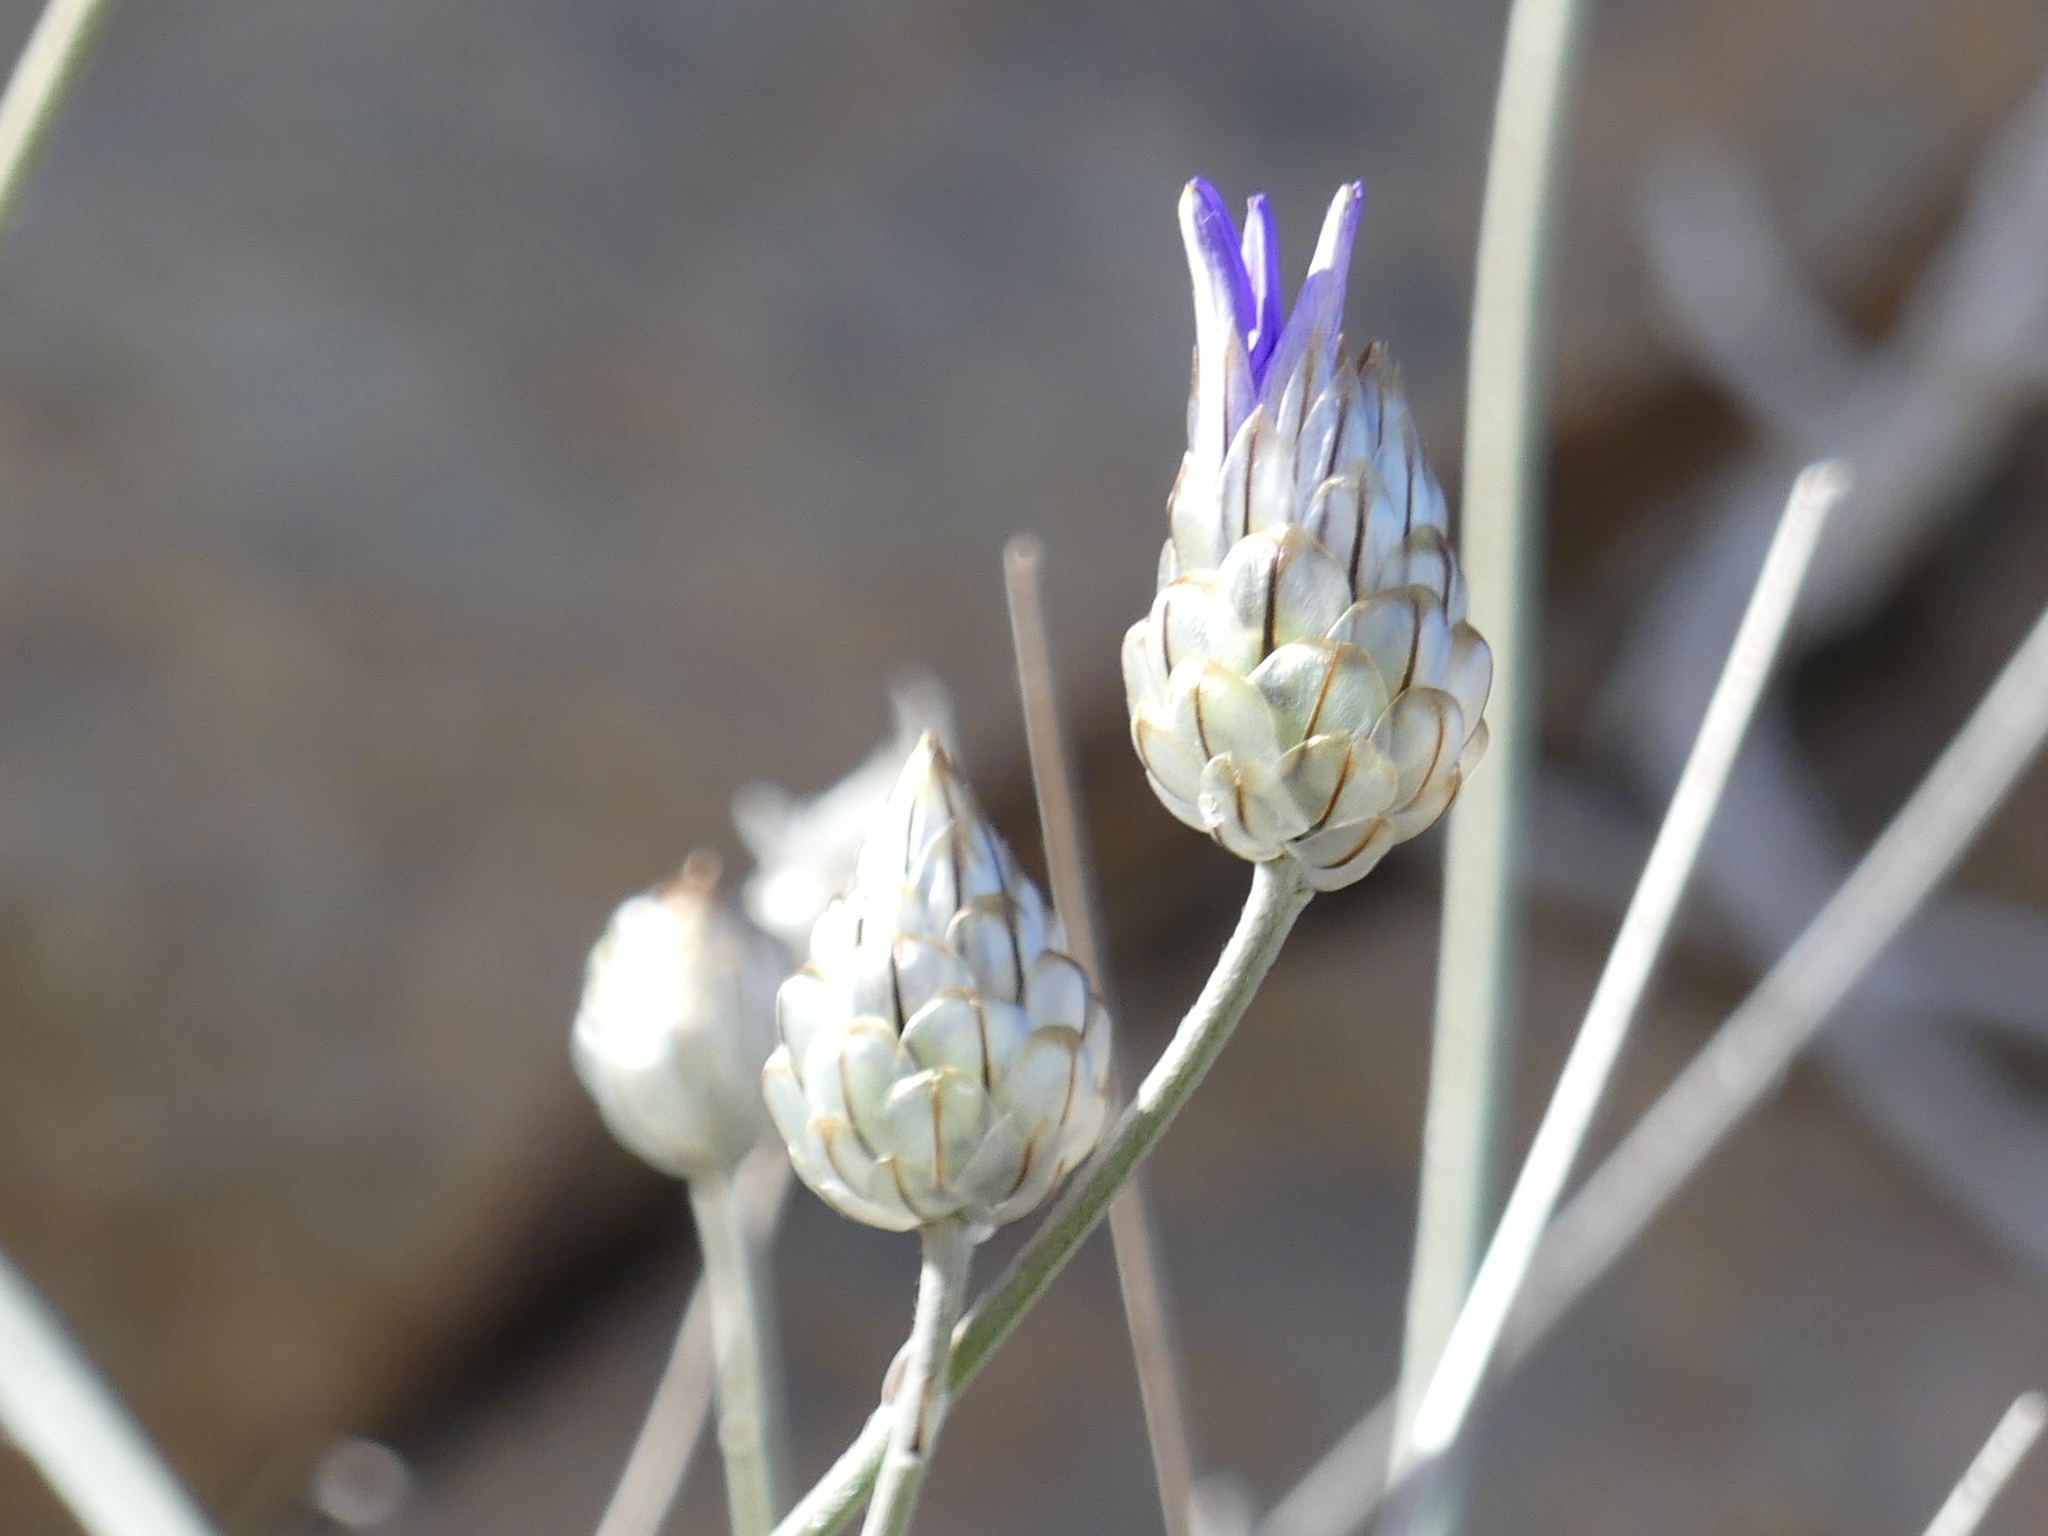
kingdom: Plantae
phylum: Tracheophyta
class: Magnoliopsida
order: Asterales
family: Asteraceae
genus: Catananche
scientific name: Catananche caerulea
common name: Blue cupidone
